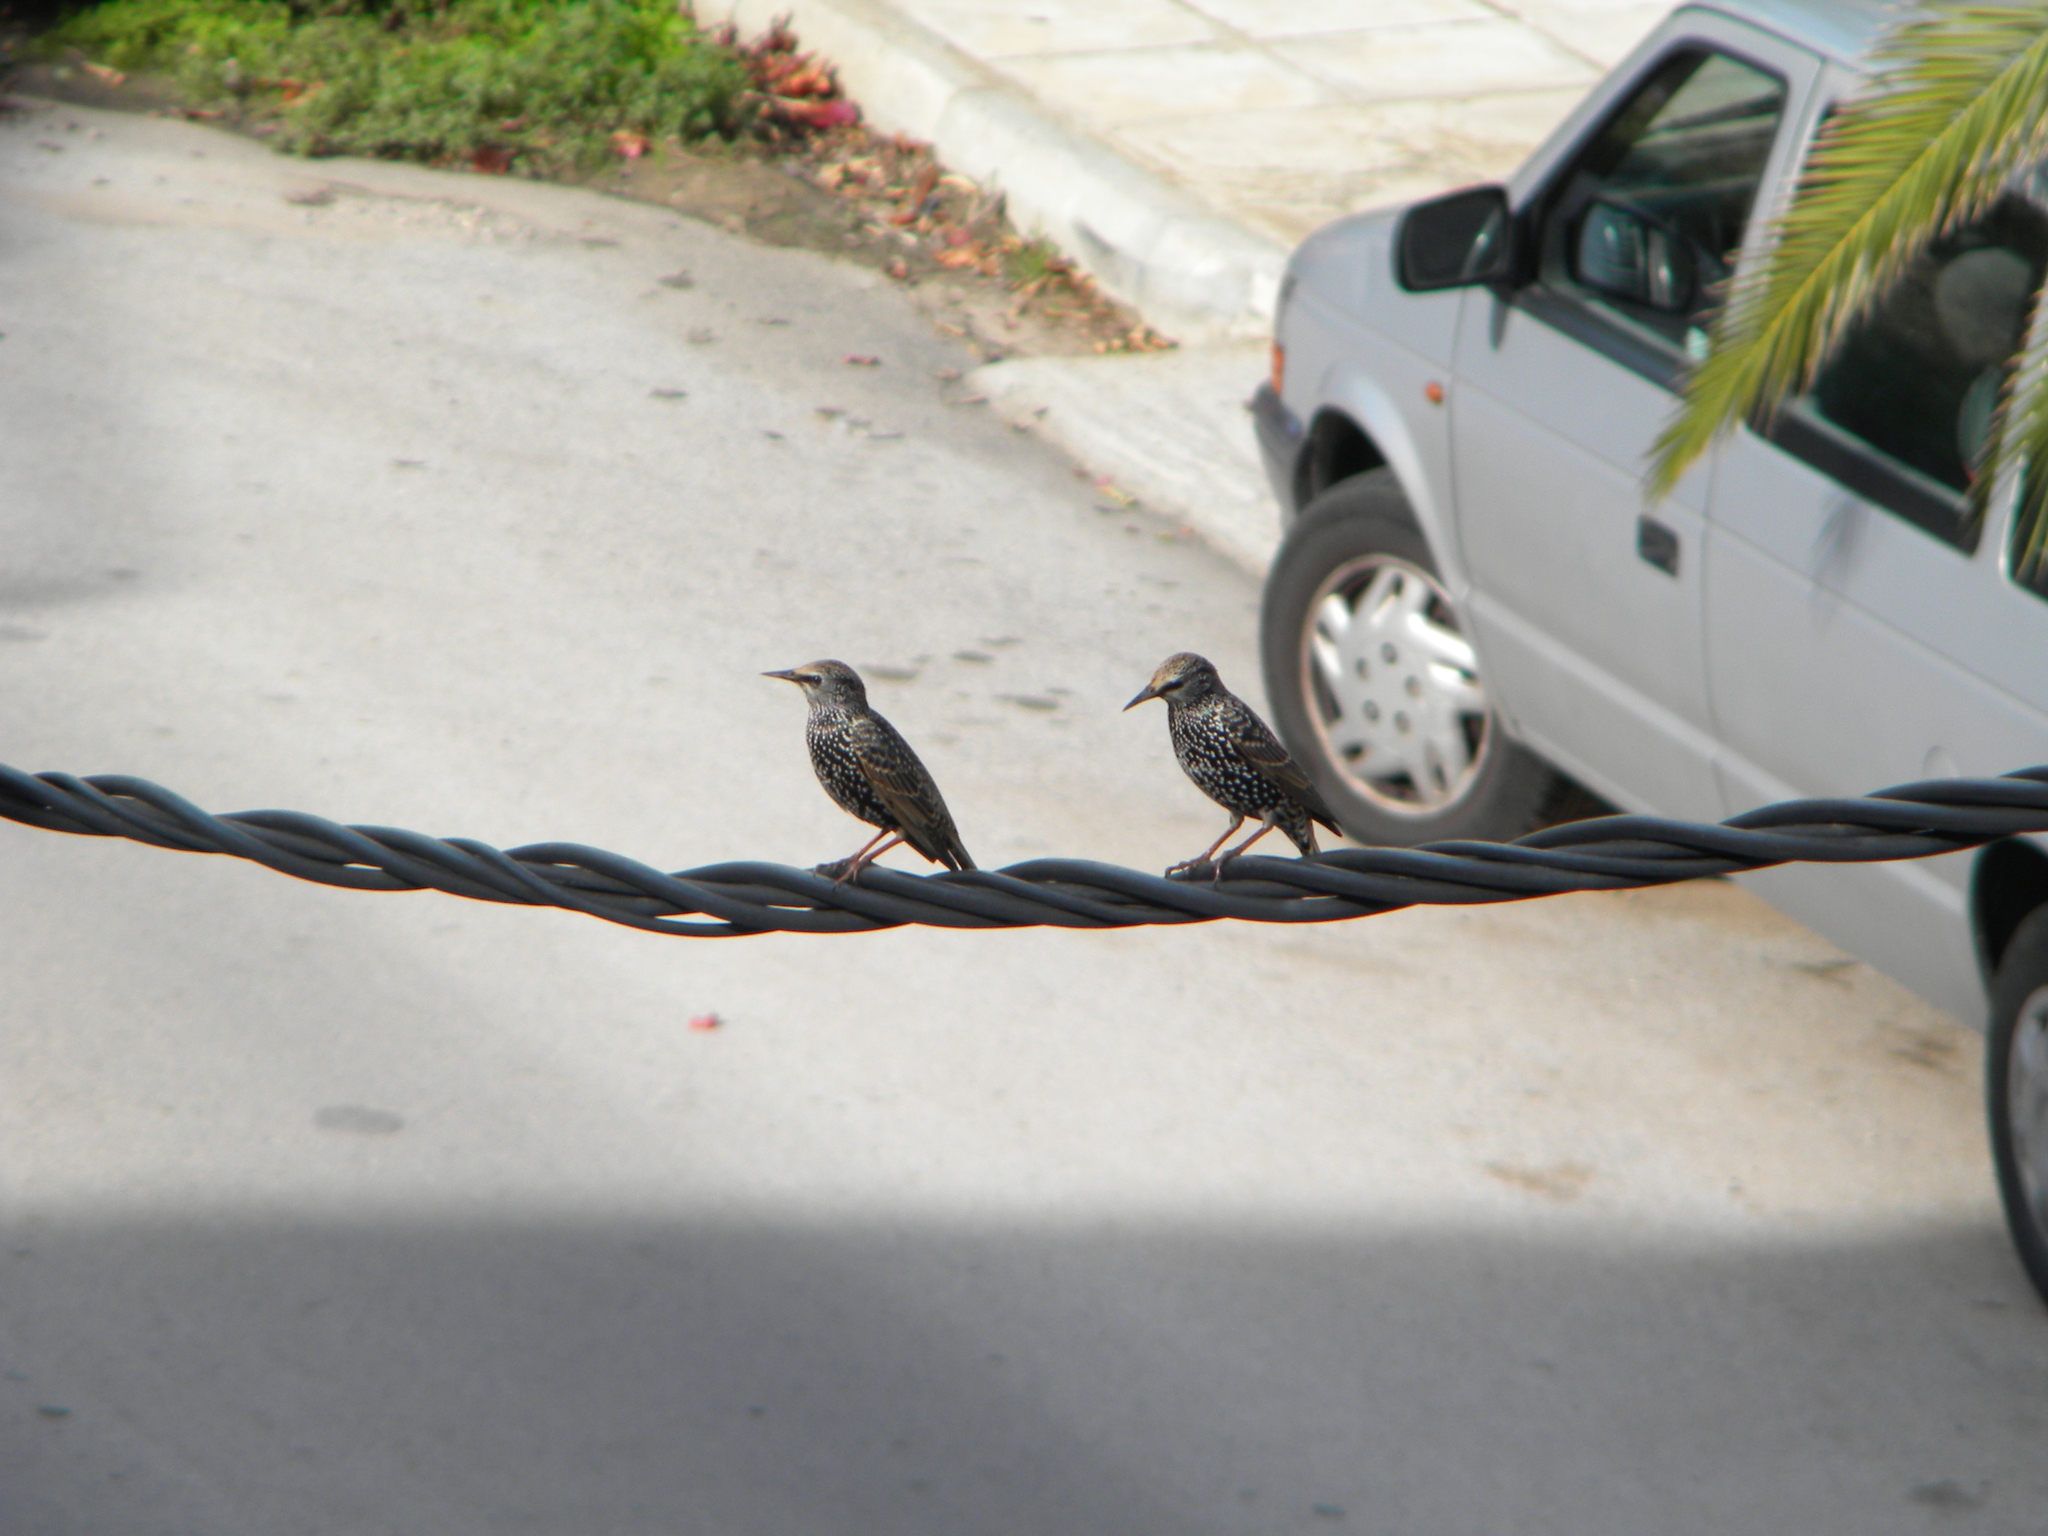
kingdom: Animalia
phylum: Chordata
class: Aves
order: Passeriformes
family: Sturnidae
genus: Sturnus
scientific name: Sturnus vulgaris
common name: Common starling
